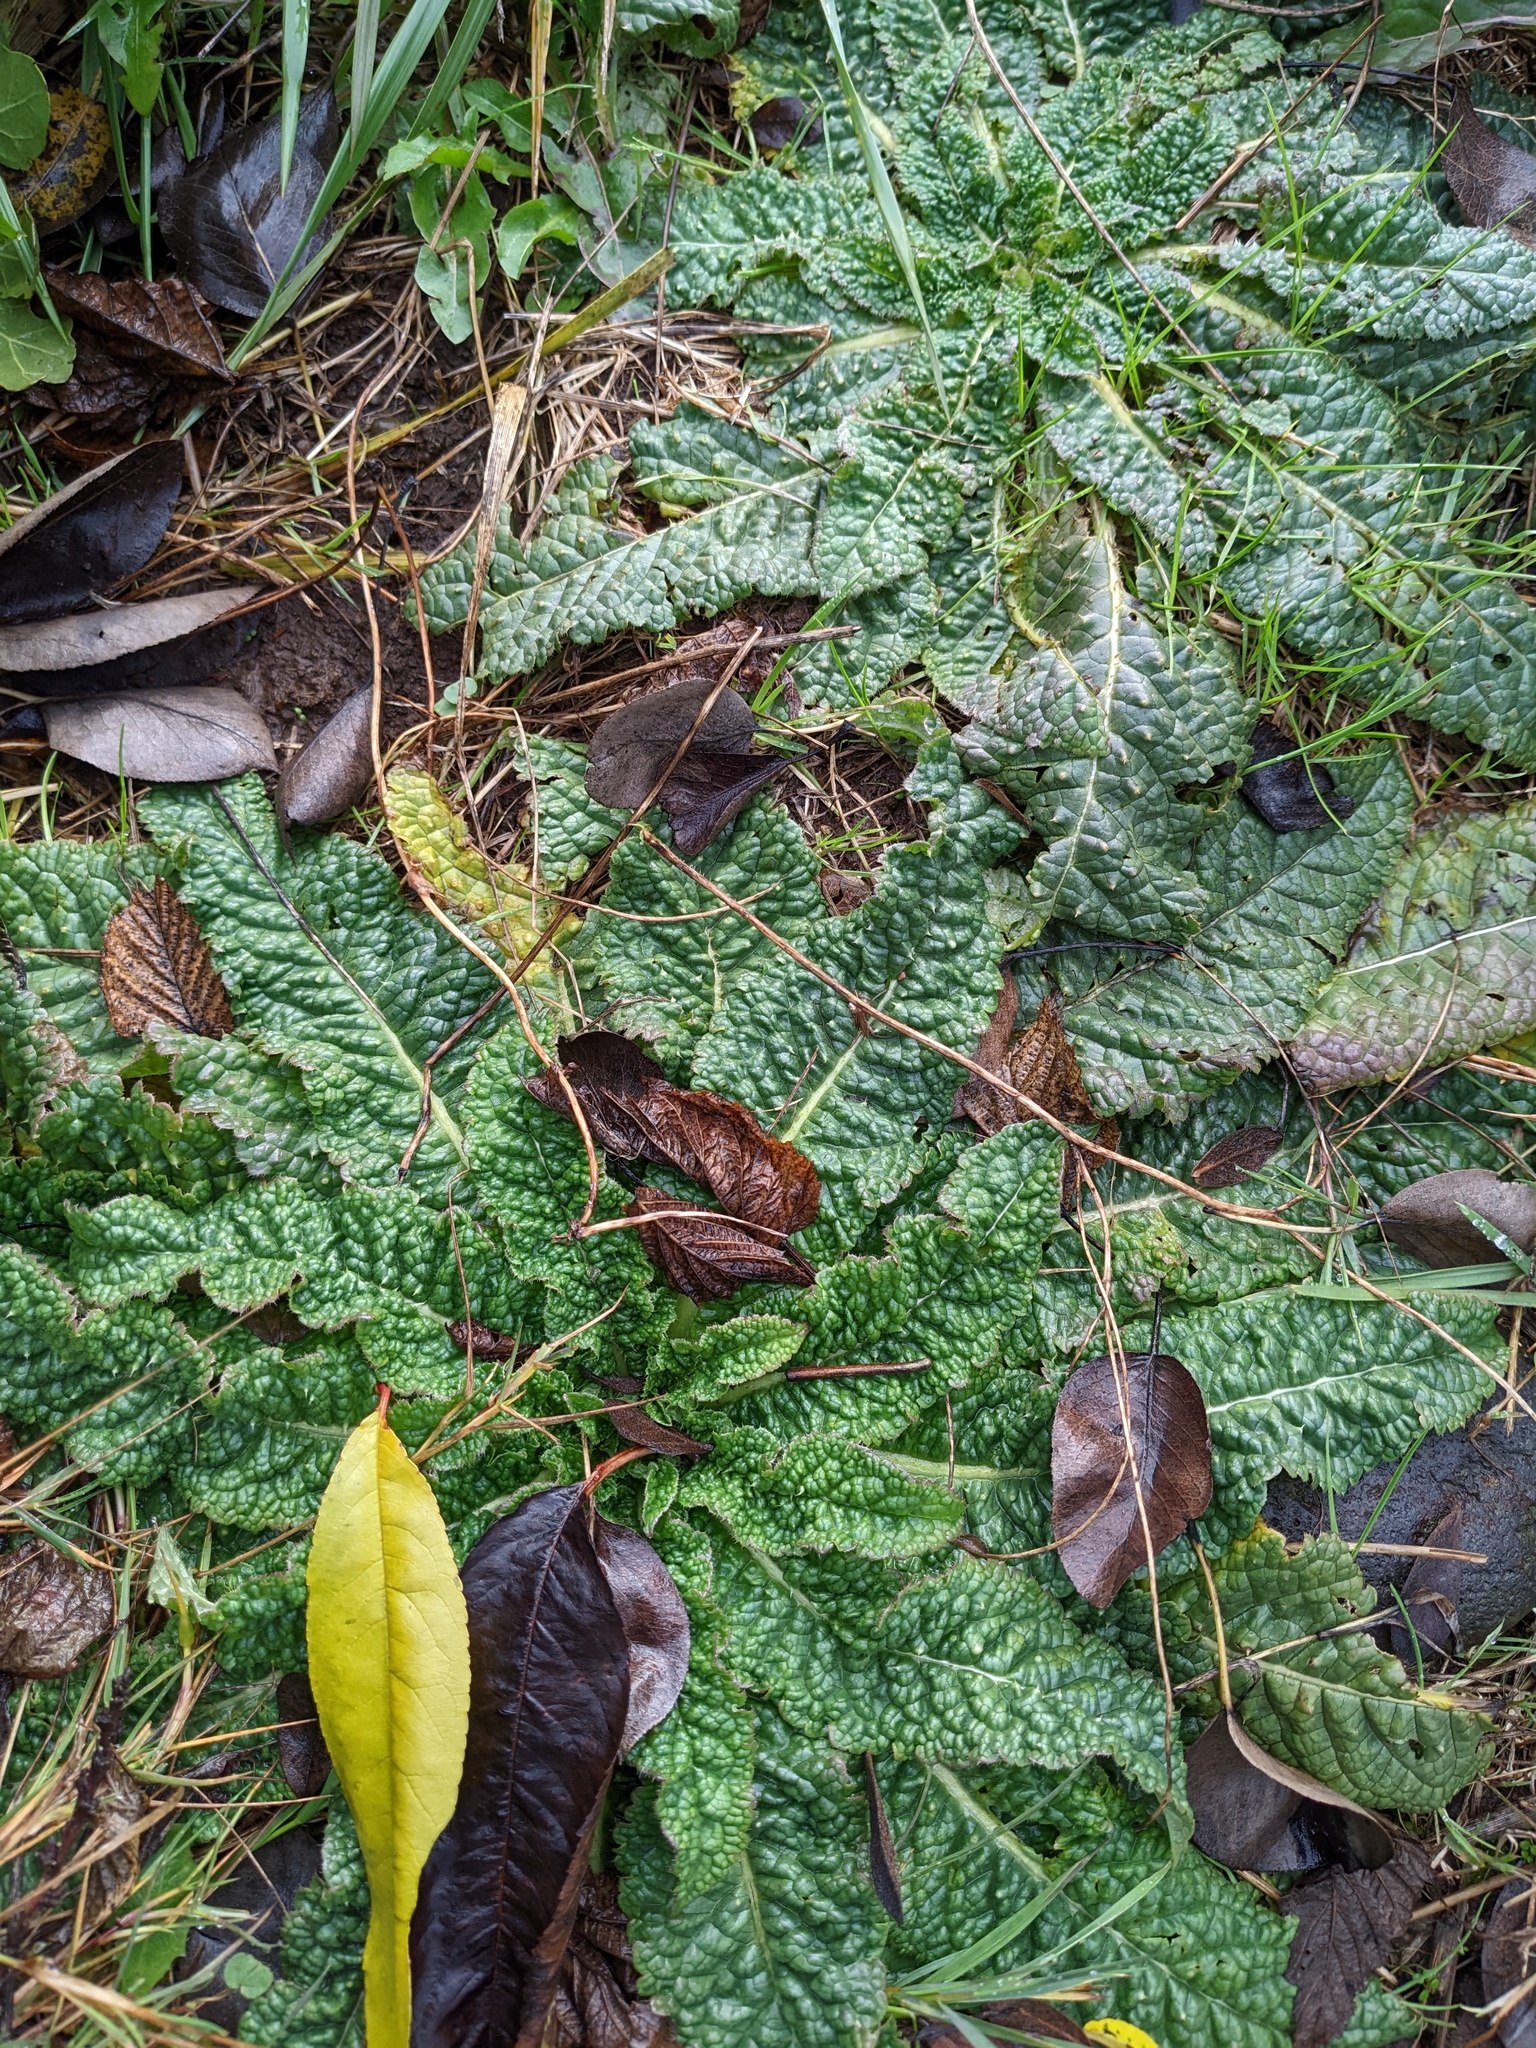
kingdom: Plantae
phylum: Tracheophyta
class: Magnoliopsida
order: Dipsacales
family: Caprifoliaceae
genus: Dipsacus
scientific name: Dipsacus fullonum
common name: Teasel
